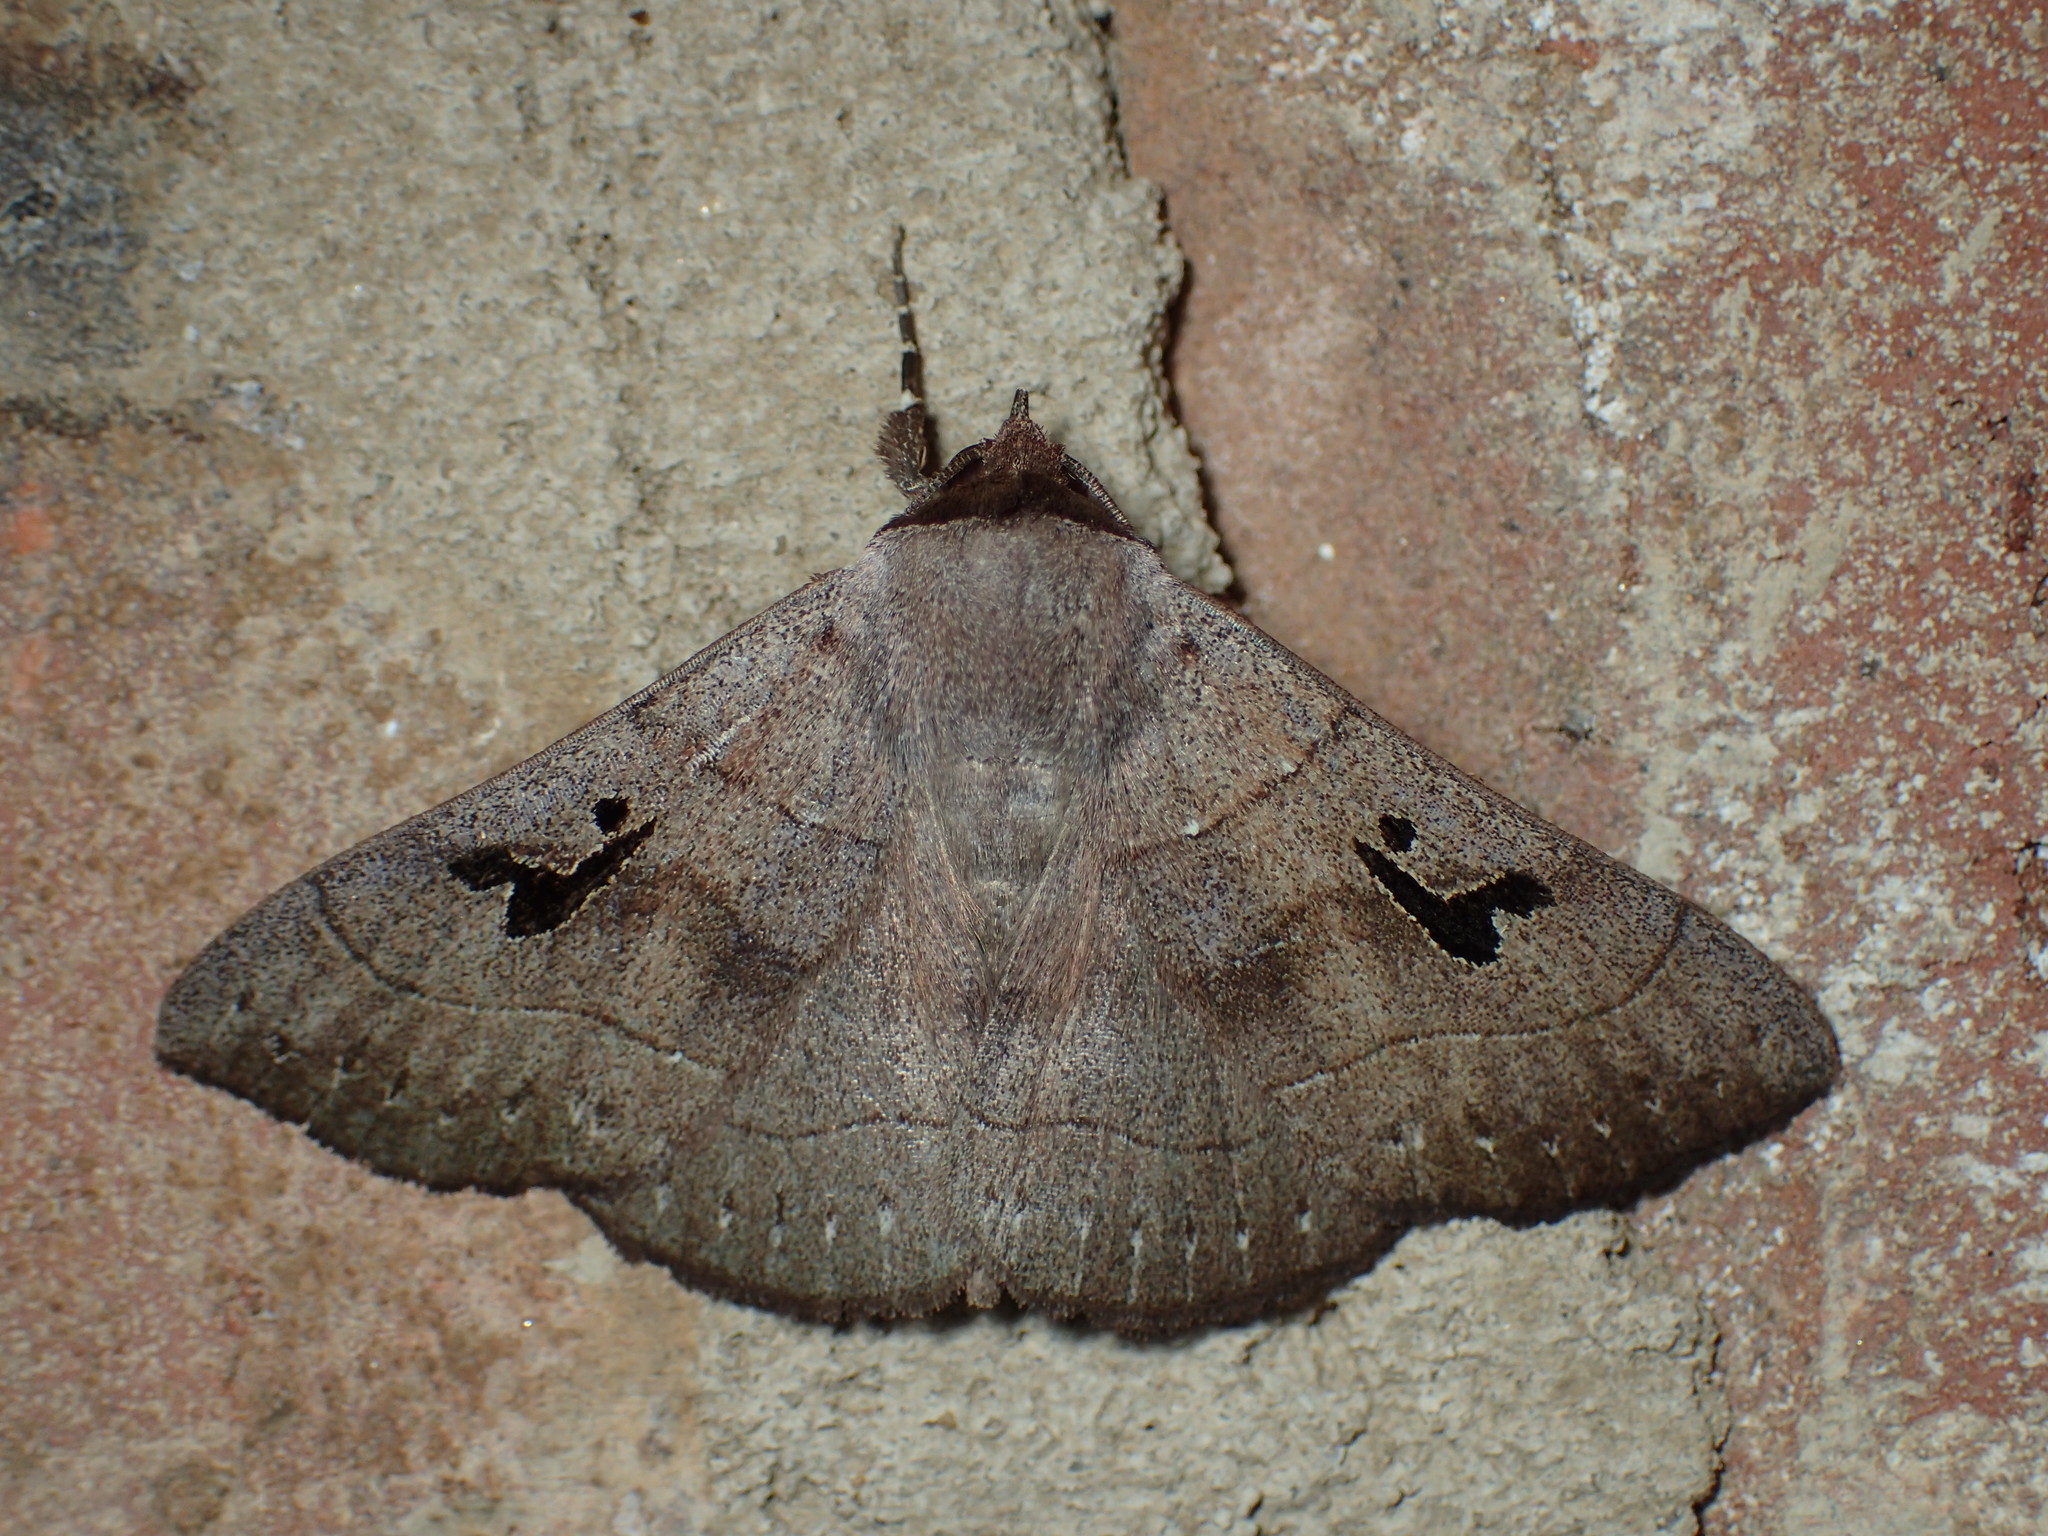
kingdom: Animalia
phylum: Arthropoda
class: Insecta
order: Lepidoptera
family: Erebidae
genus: Panopoda
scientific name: Panopoda carneicosta
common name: Brown panopoda moth
